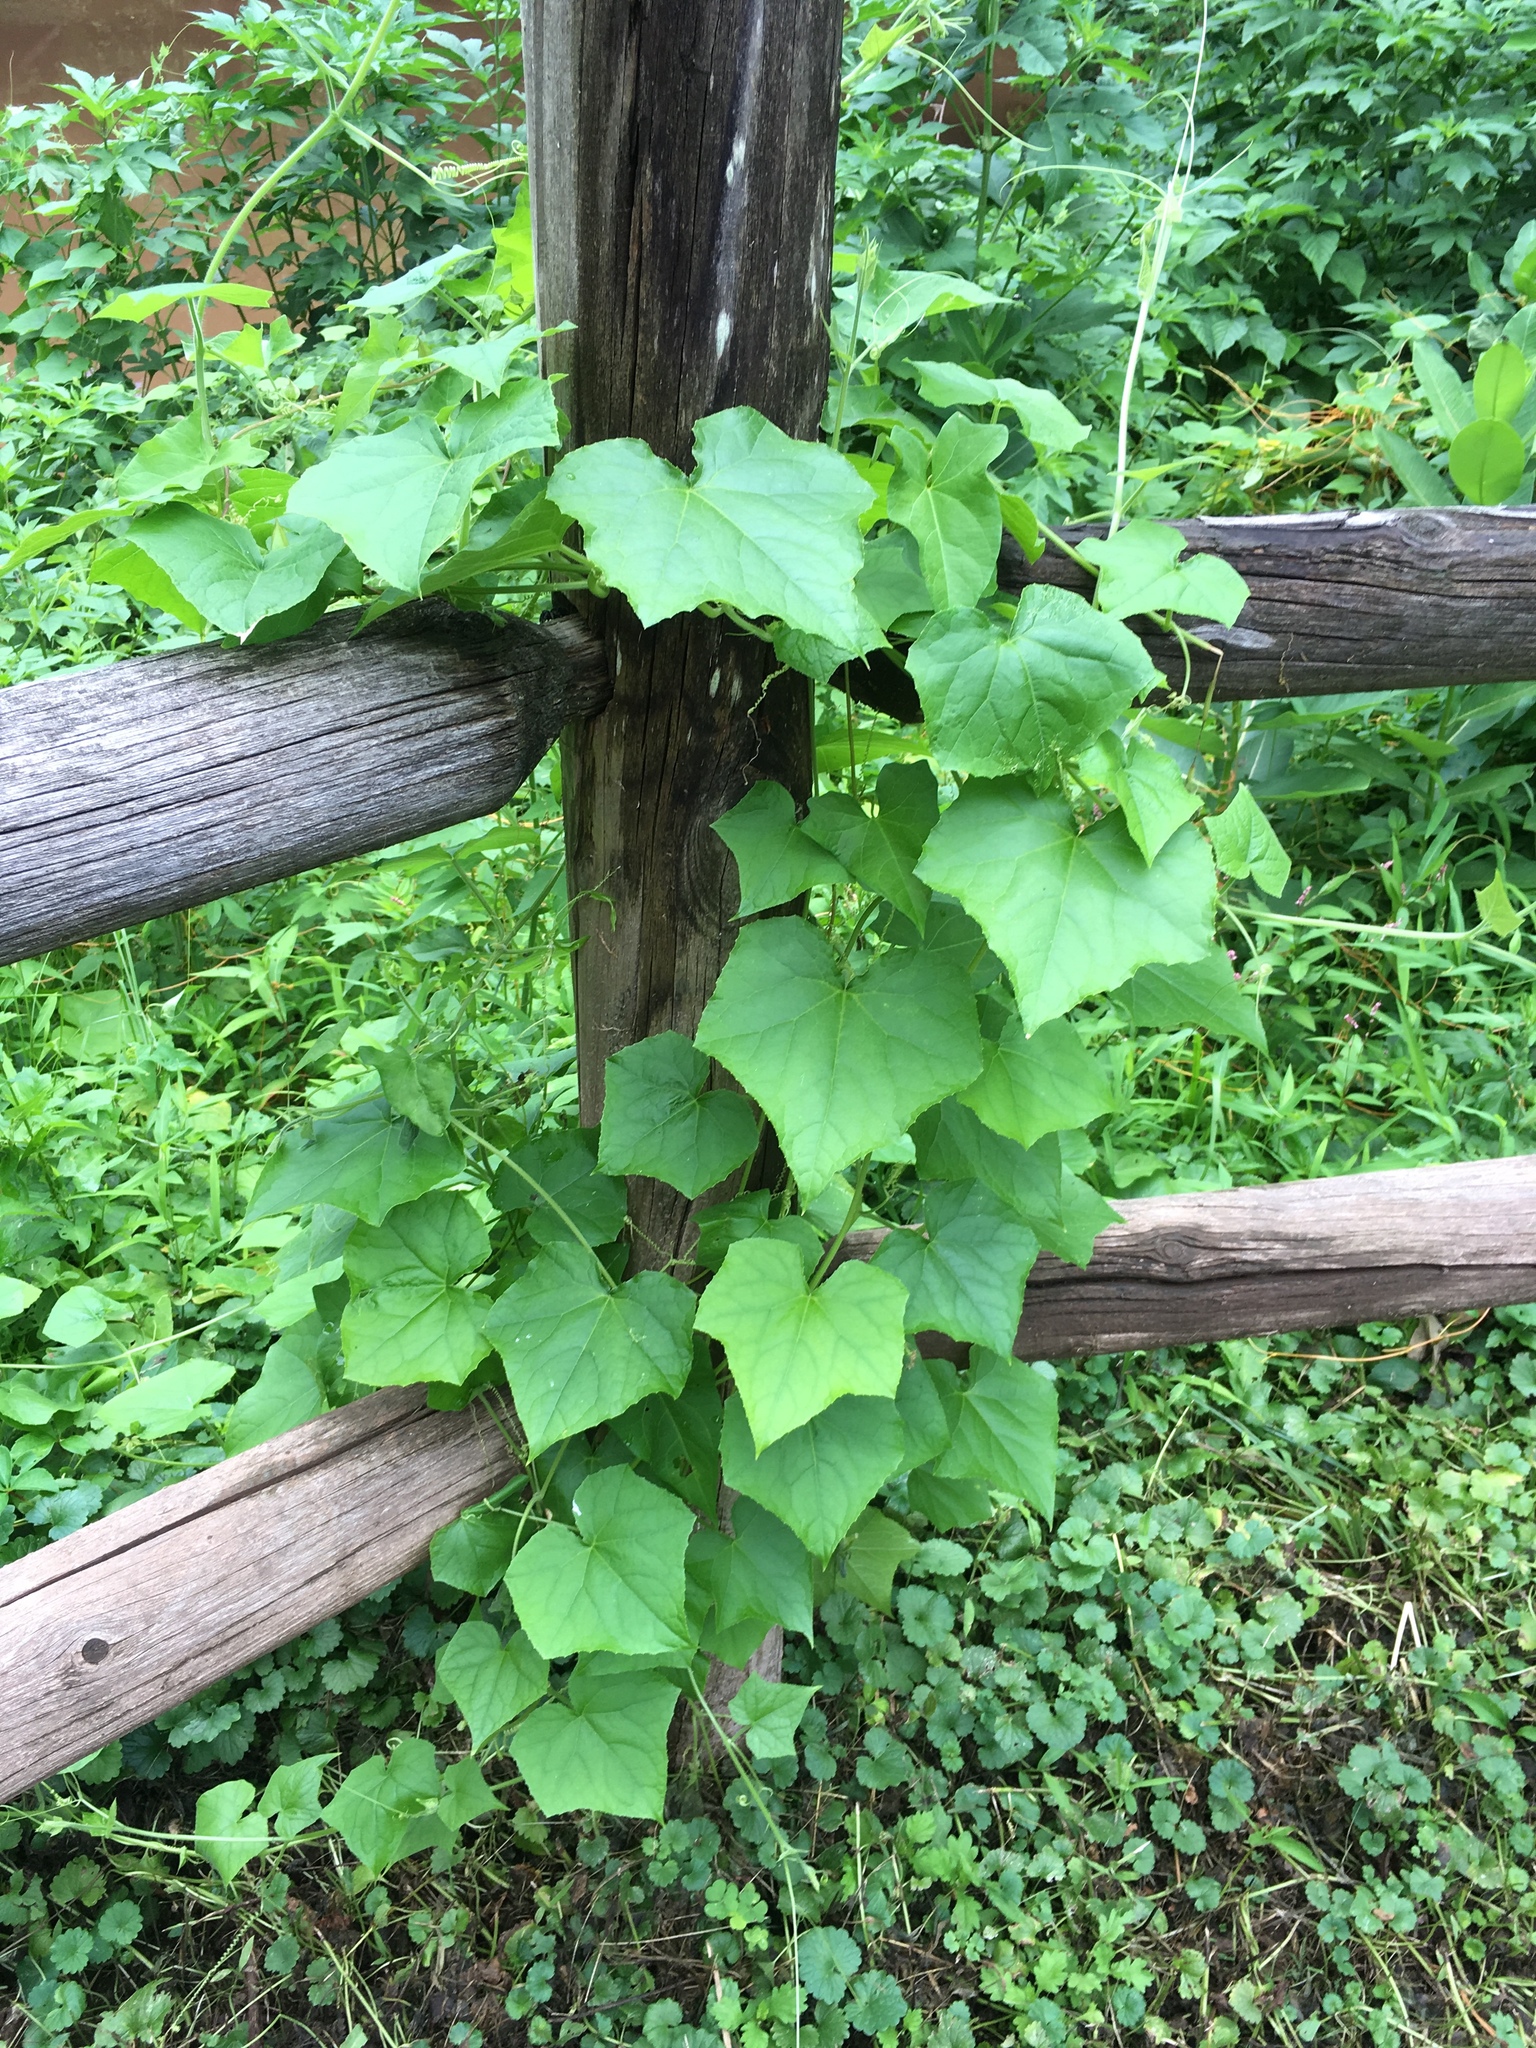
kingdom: Plantae
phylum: Tracheophyta
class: Magnoliopsida
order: Cucurbitales
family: Cucurbitaceae
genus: Sicyos
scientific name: Sicyos angulatus
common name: Angled burr cucumber
